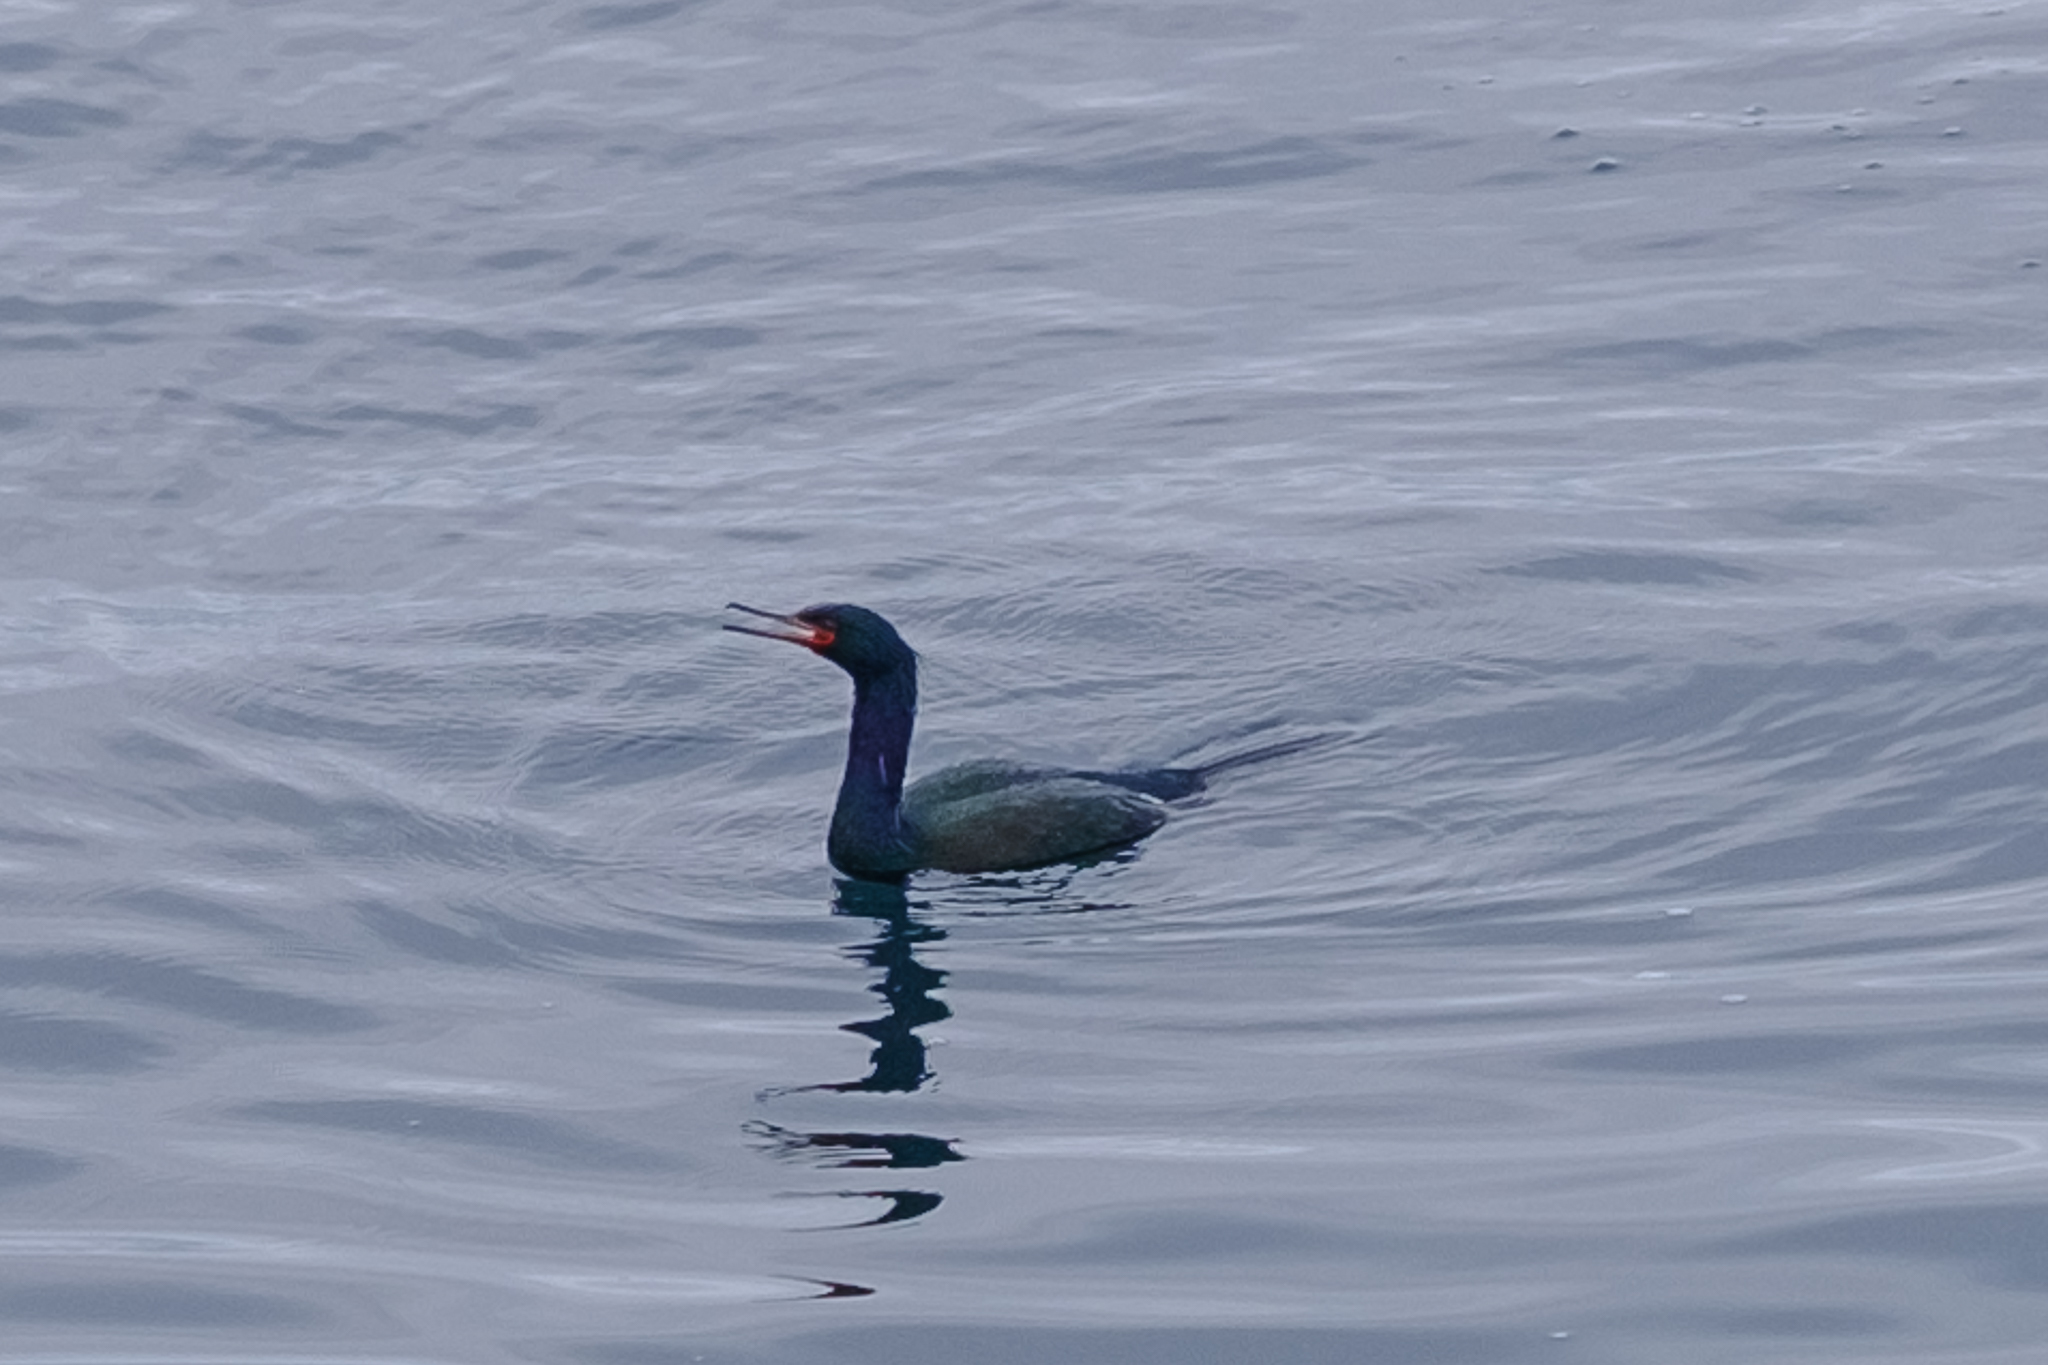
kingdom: Animalia
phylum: Chordata
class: Aves
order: Suliformes
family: Phalacrocoracidae
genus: Phalacrocorax
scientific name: Phalacrocorax pelagicus
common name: Pelagic cormorant
